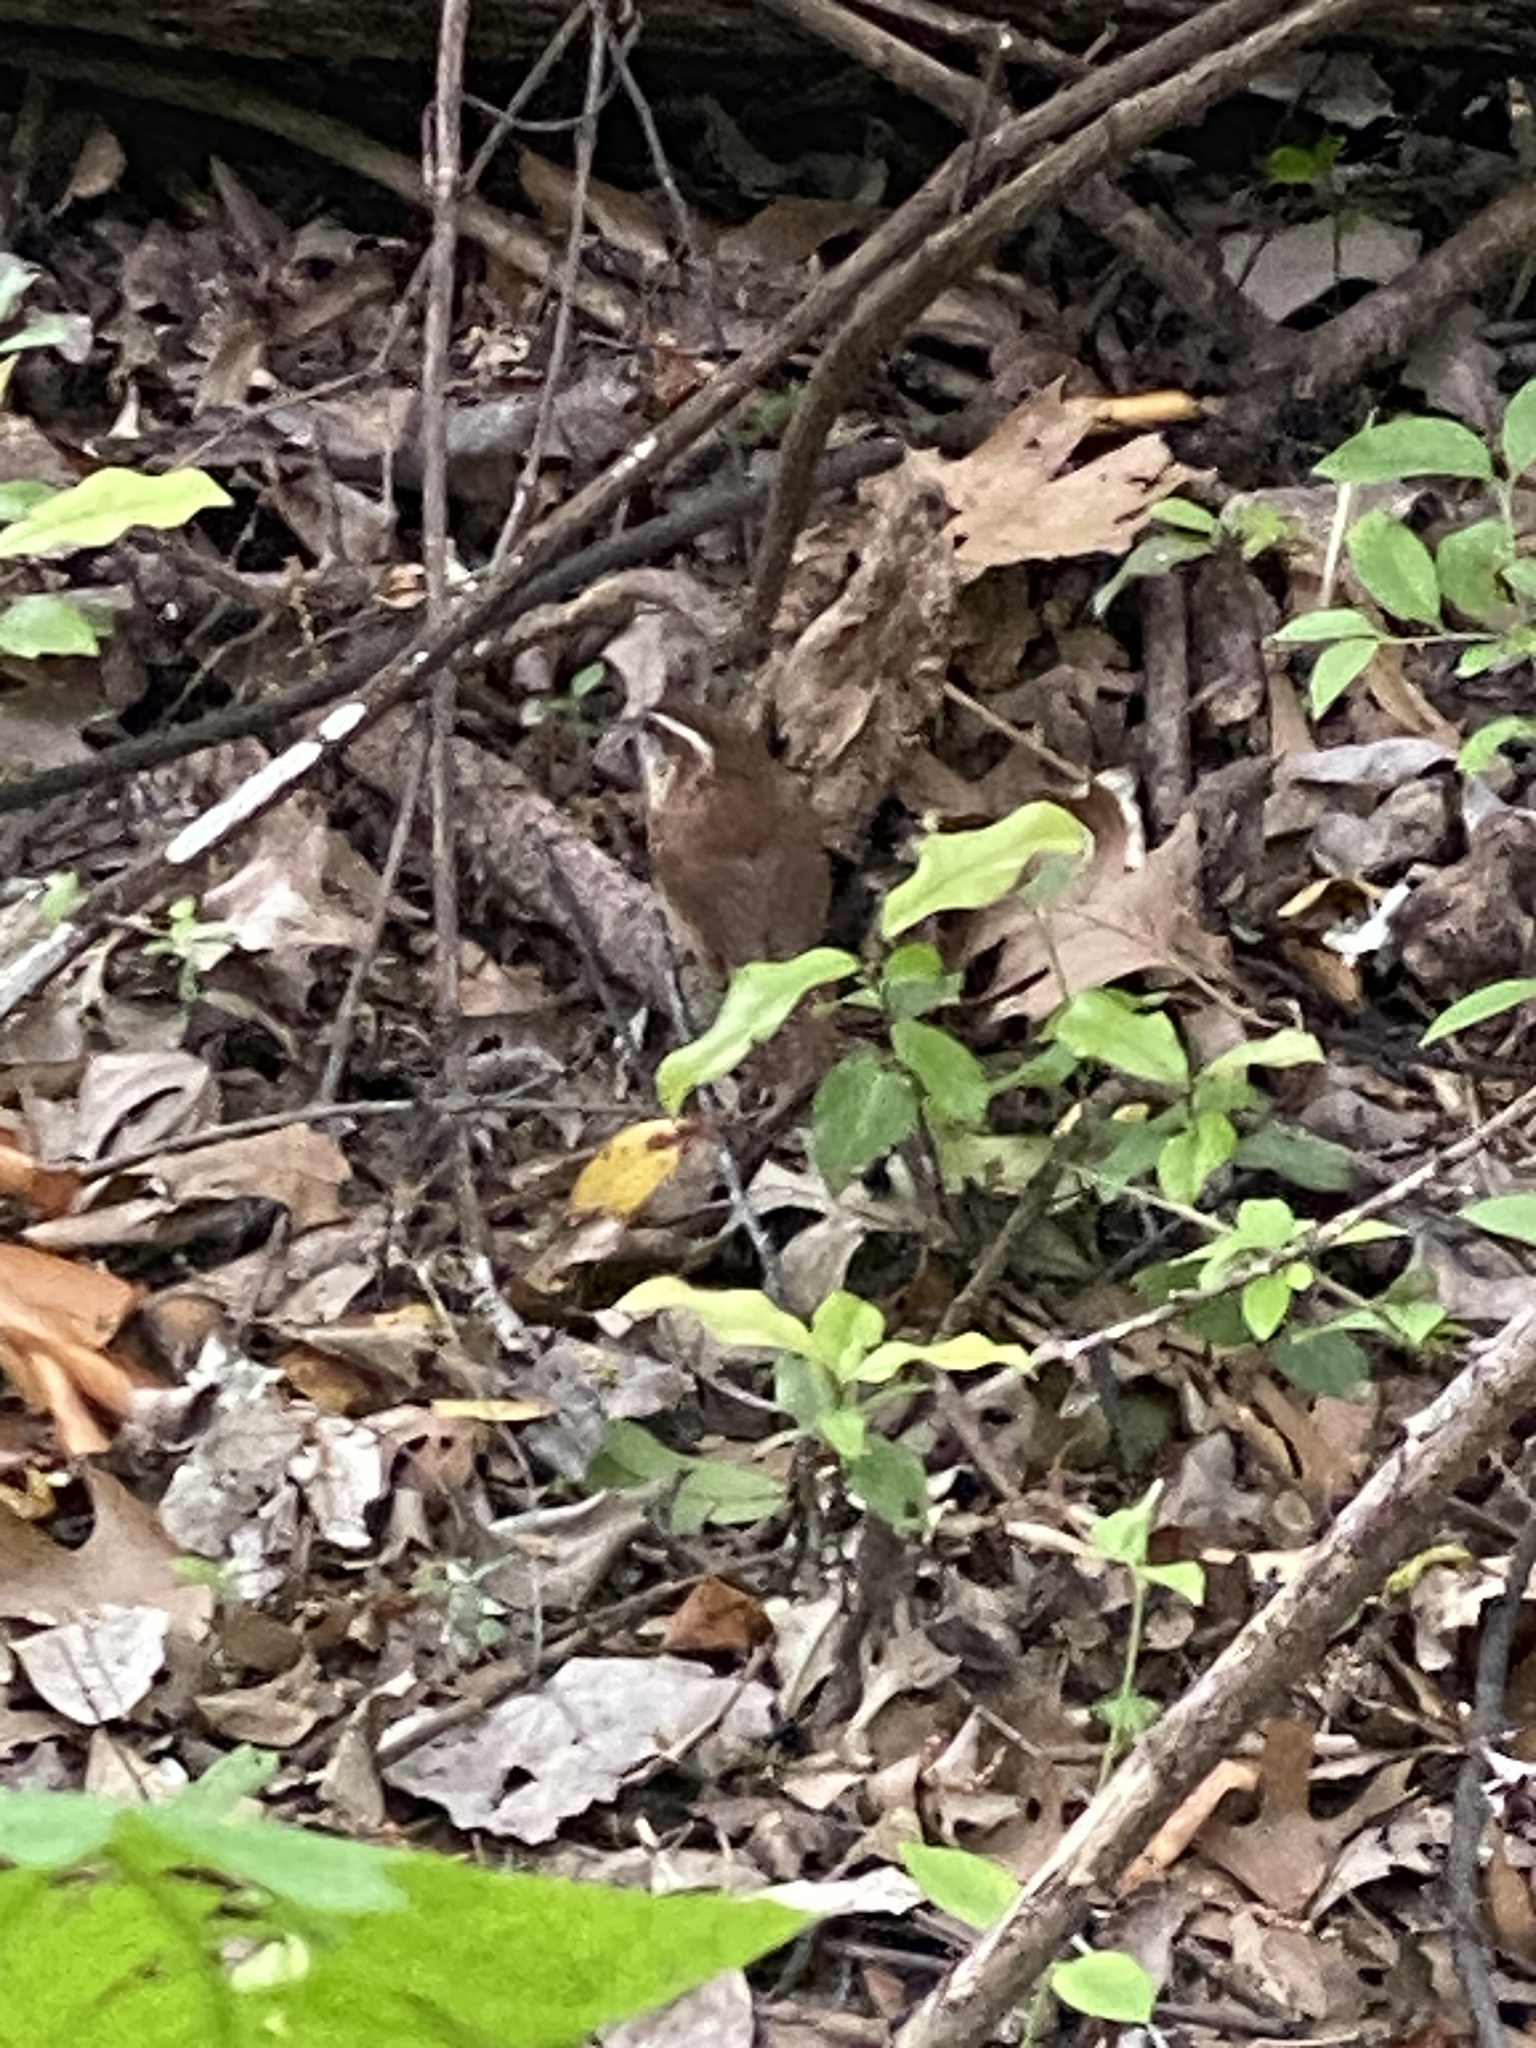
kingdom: Animalia
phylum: Chordata
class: Aves
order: Passeriformes
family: Troglodytidae
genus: Thryothorus
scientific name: Thryothorus ludovicianus
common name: Carolina wren
